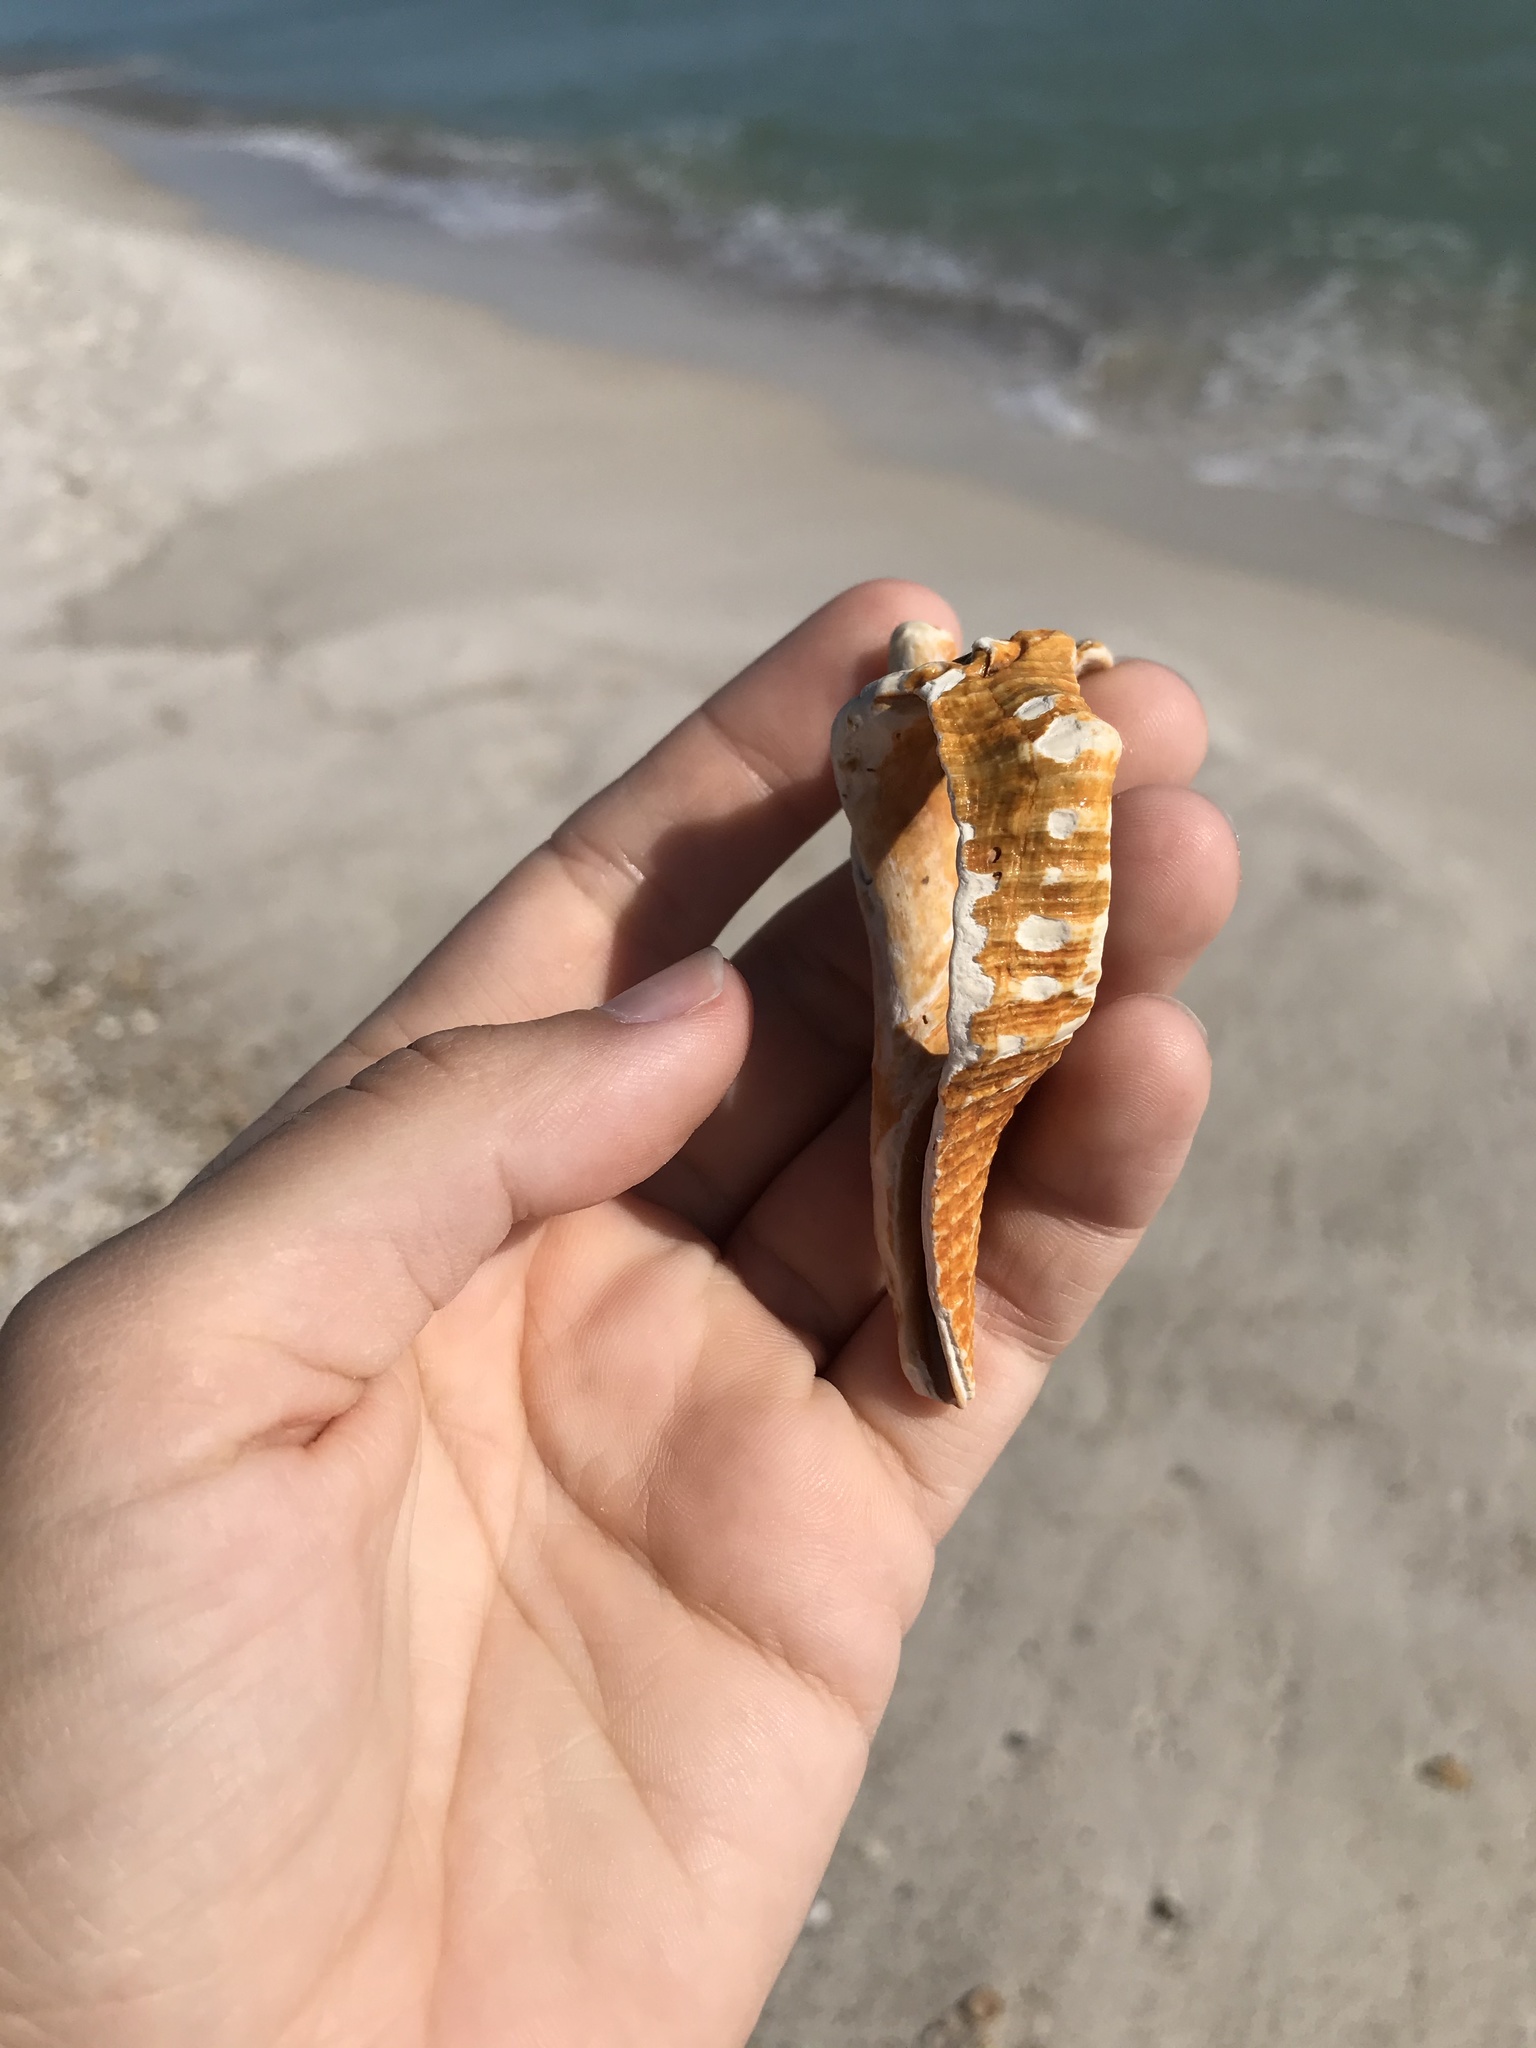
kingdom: Animalia
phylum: Mollusca
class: Gastropoda
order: Neogastropoda
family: Fasciolariidae
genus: Triplofusus
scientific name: Triplofusus giganteus
